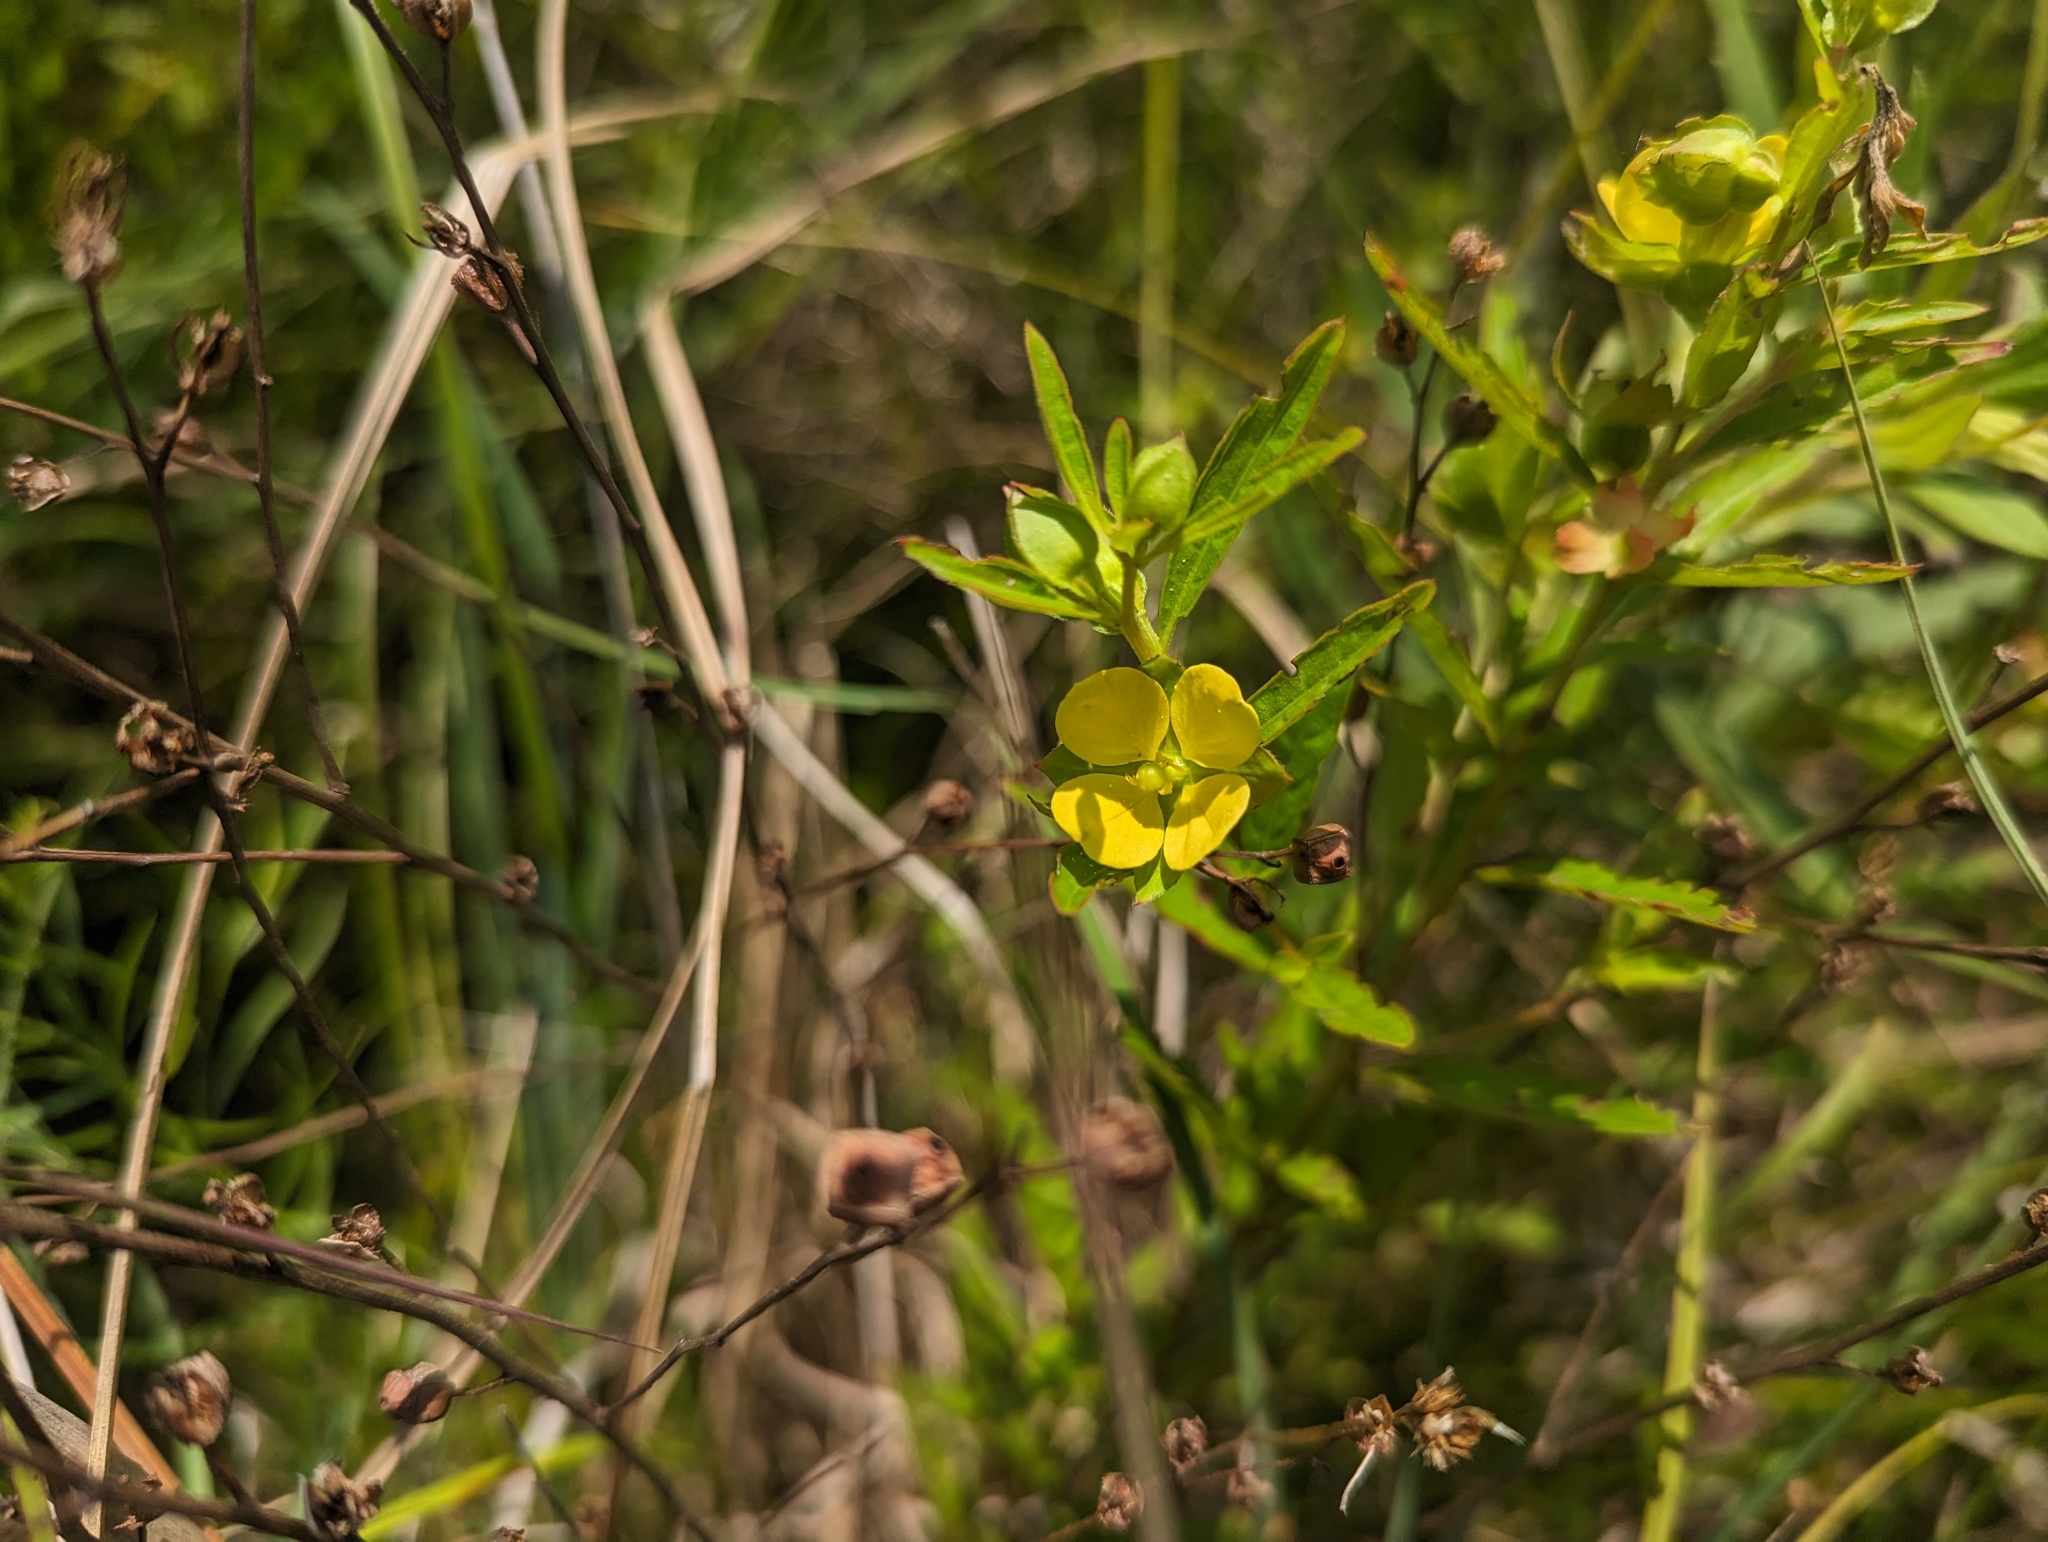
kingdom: Plantae
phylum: Tracheophyta
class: Magnoliopsida
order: Myrtales
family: Onagraceae
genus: Ludwigia
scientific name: Ludwigia alternifolia
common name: Rattlebox
